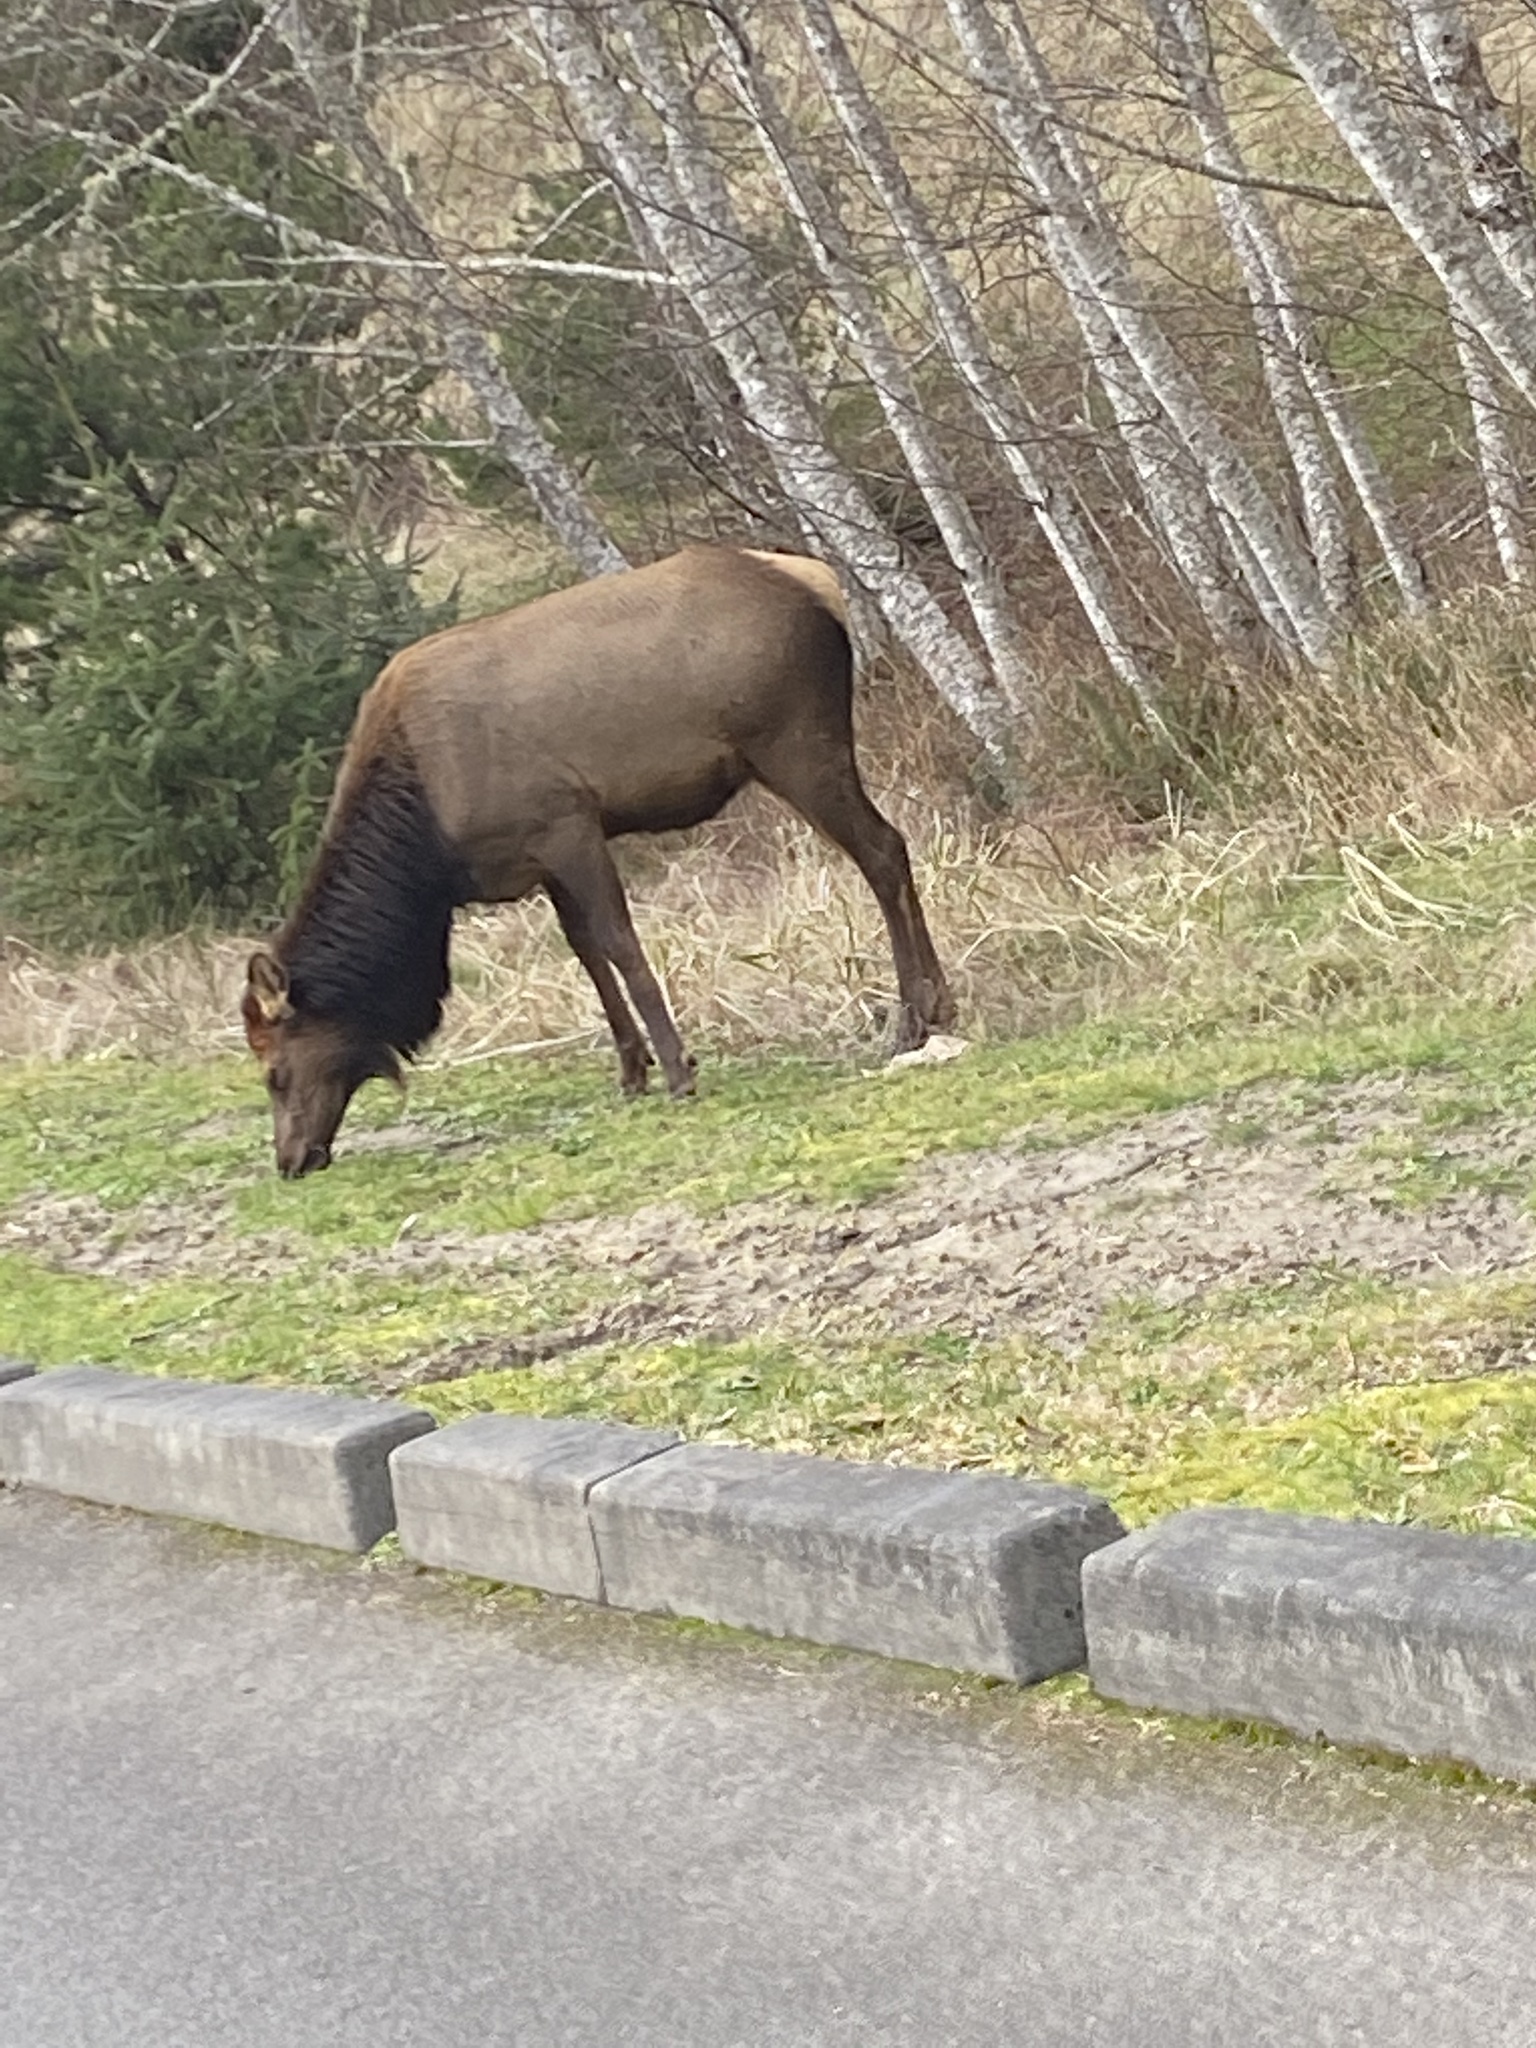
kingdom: Animalia
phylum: Chordata
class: Mammalia
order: Artiodactyla
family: Cervidae
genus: Cervus
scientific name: Cervus elaphus
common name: Red deer
